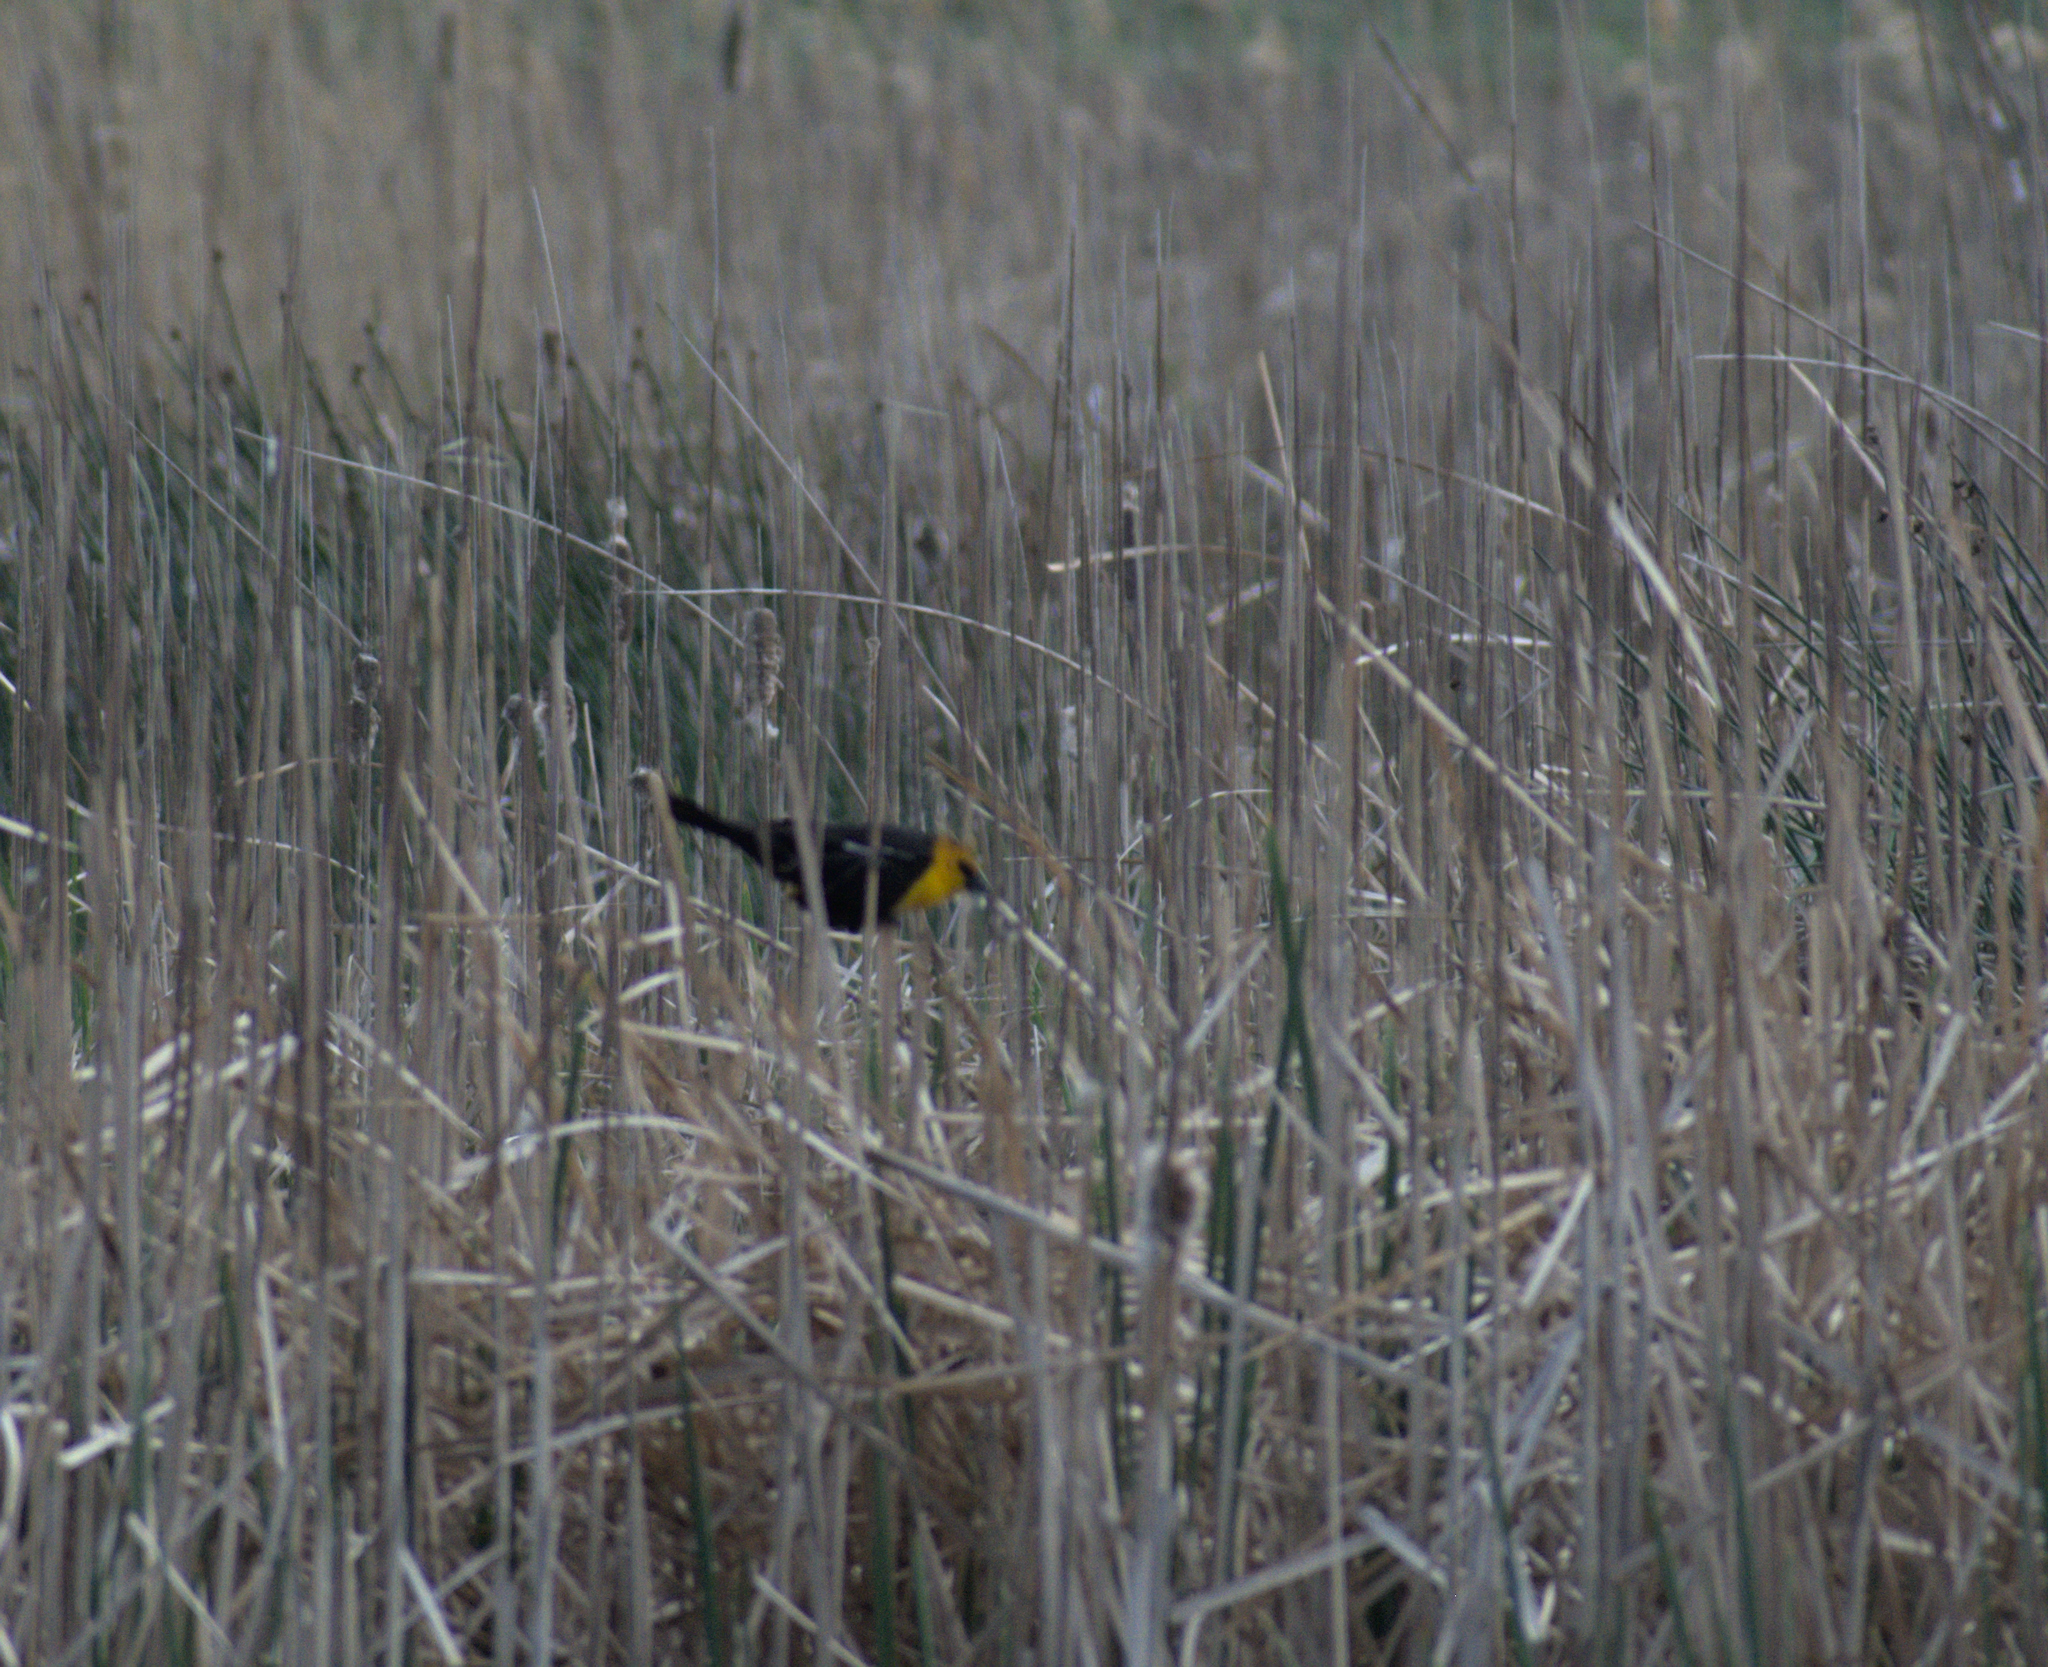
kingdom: Animalia
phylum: Chordata
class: Aves
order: Passeriformes
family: Icteridae
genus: Xanthocephalus
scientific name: Xanthocephalus xanthocephalus
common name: Yellow-headed blackbird
